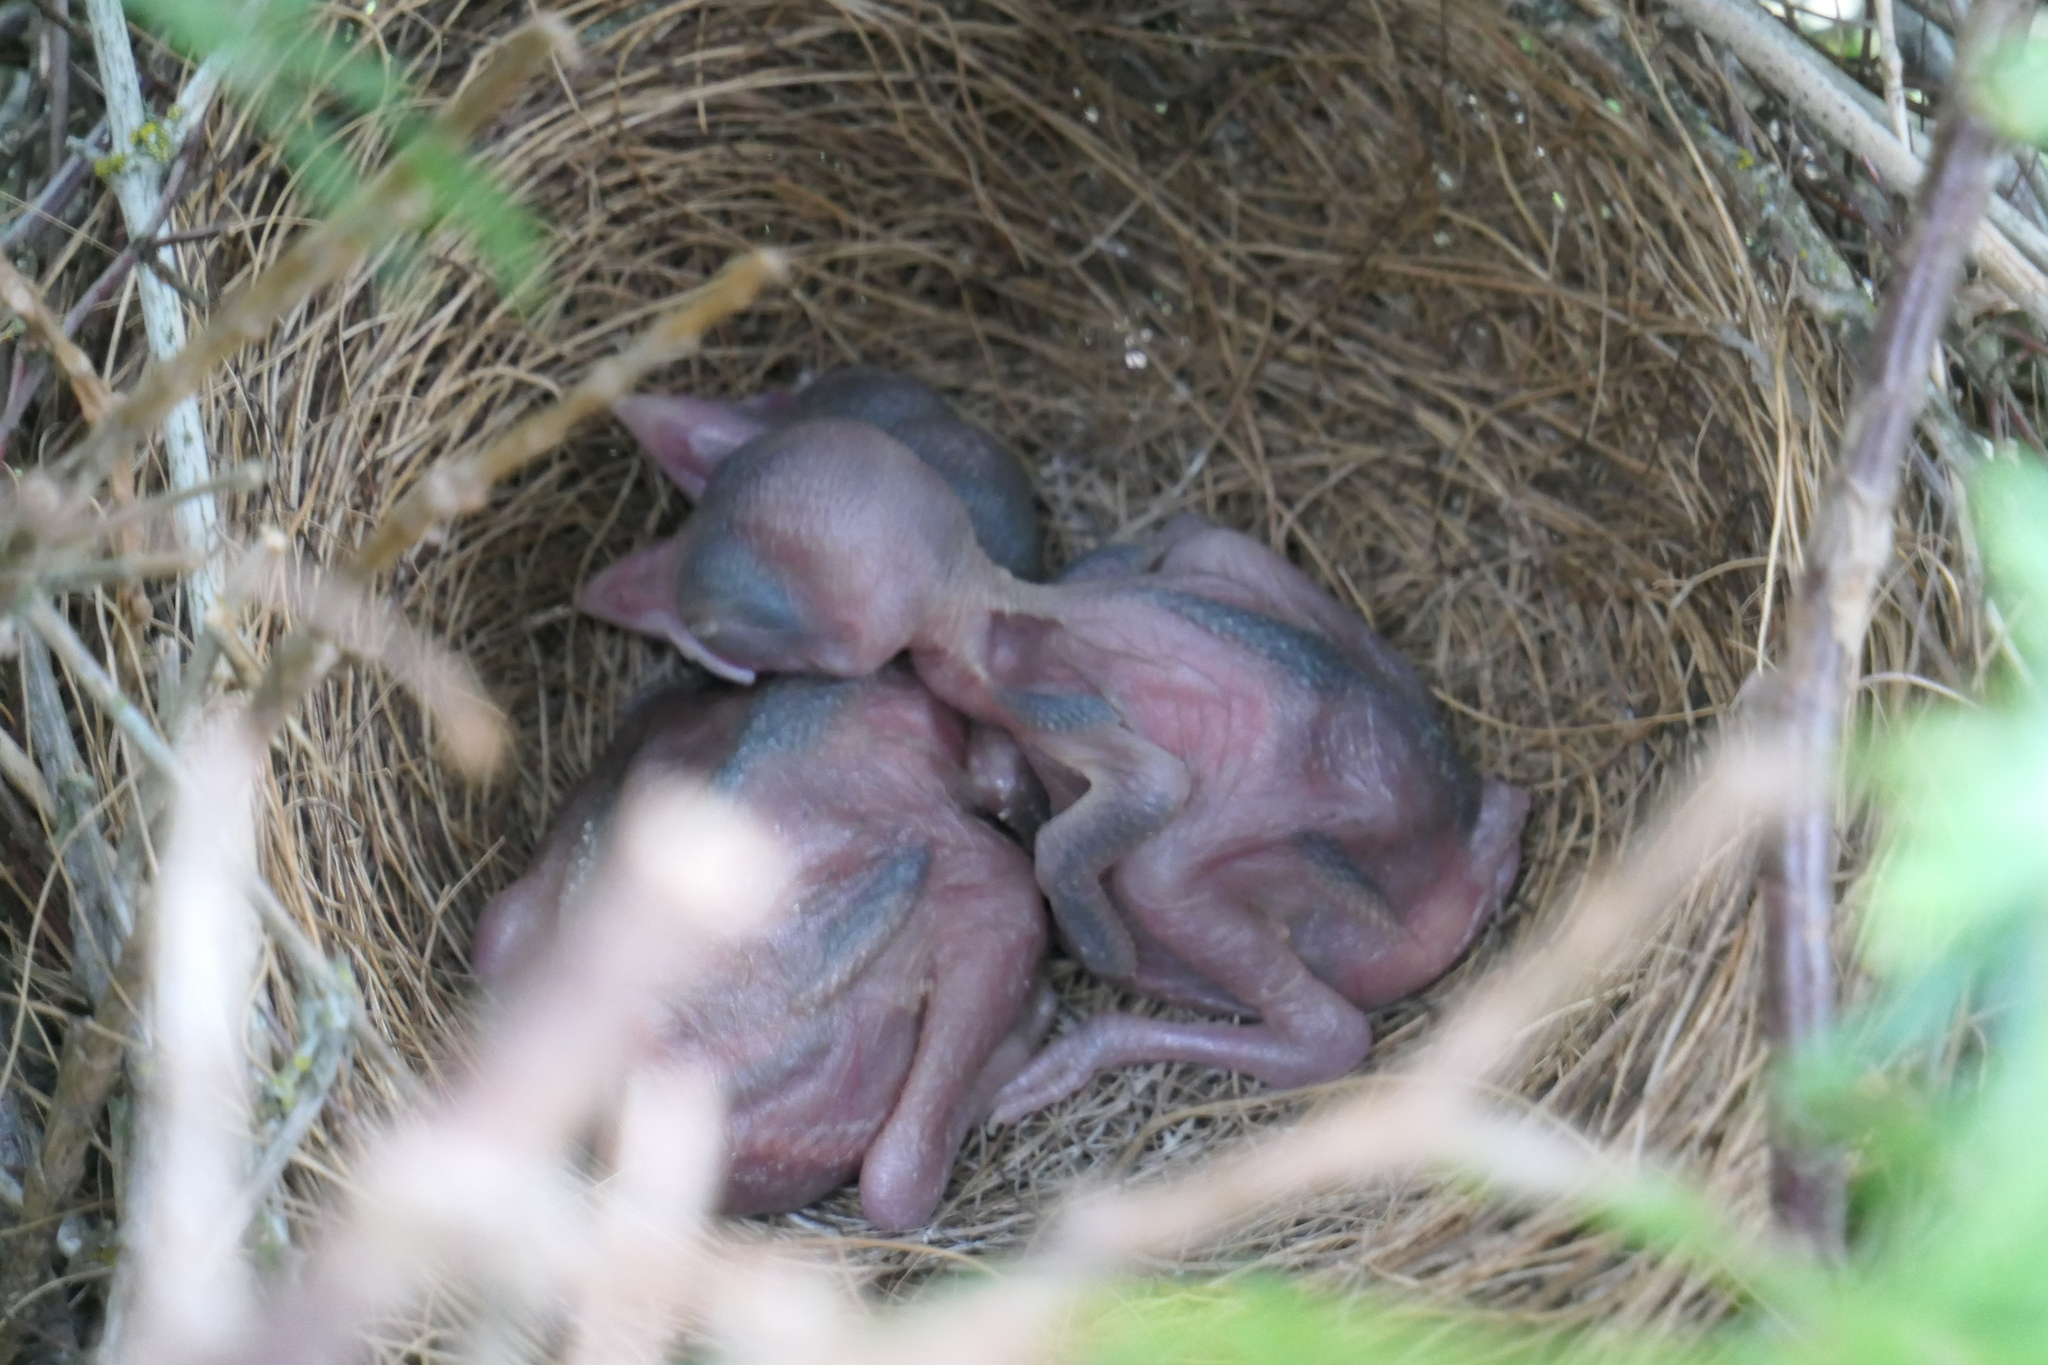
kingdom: Animalia
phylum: Chordata
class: Aves
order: Passeriformes
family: Corvidae
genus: Aphelocoma
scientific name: Aphelocoma californica
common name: California scrub-jay
